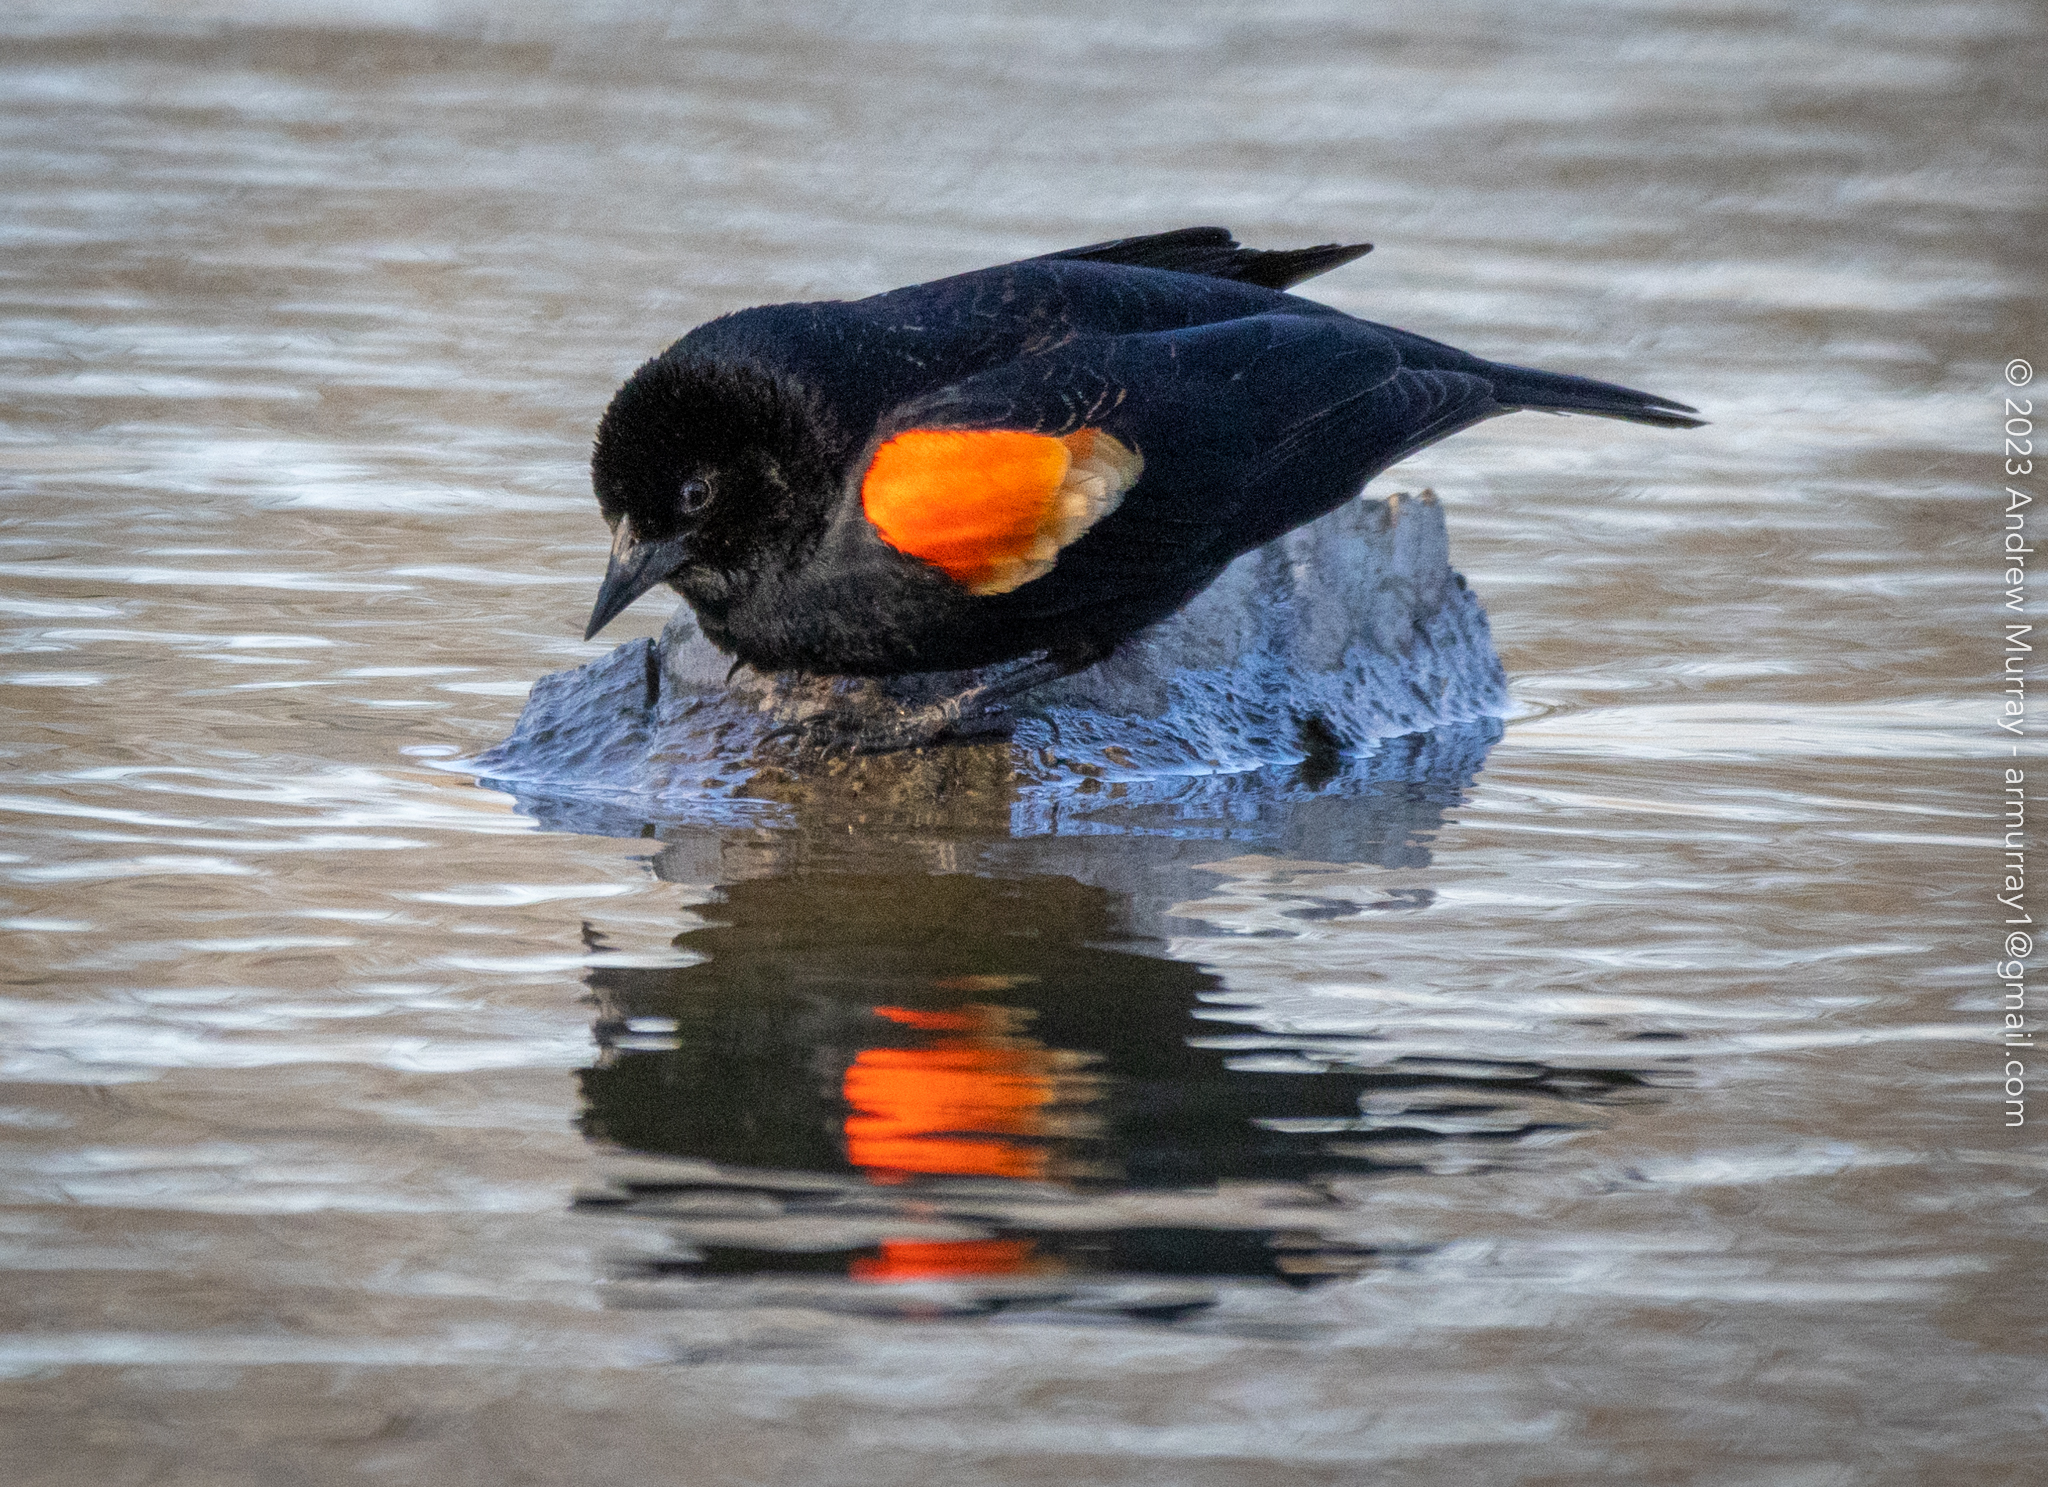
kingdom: Animalia
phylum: Chordata
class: Aves
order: Passeriformes
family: Icteridae
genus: Agelaius
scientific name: Agelaius phoeniceus
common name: Red-winged blackbird
